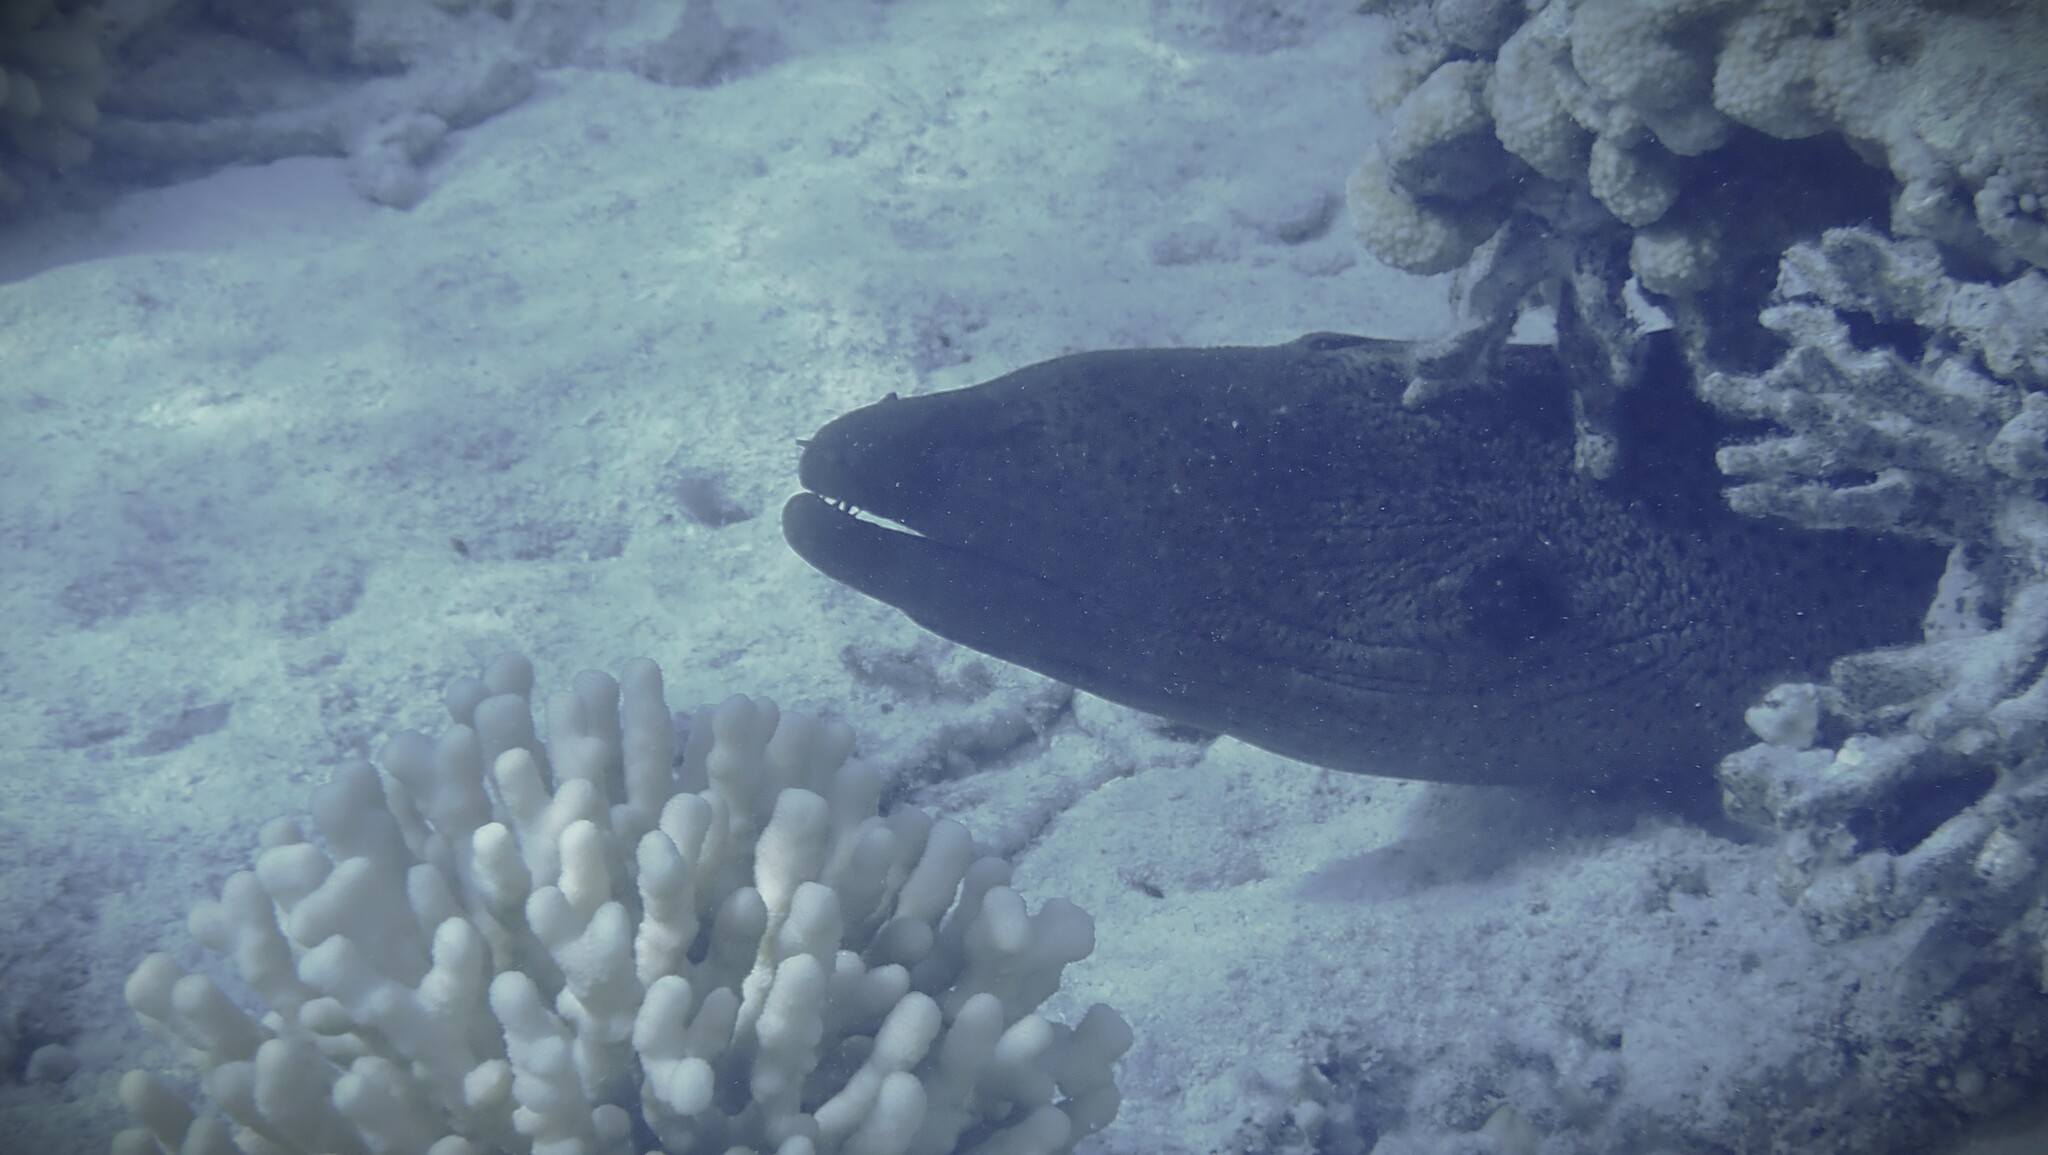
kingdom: Animalia
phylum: Chordata
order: Anguilliformes
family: Muraenidae
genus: Gymnothorax
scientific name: Gymnothorax javanicus
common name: Giant moray
